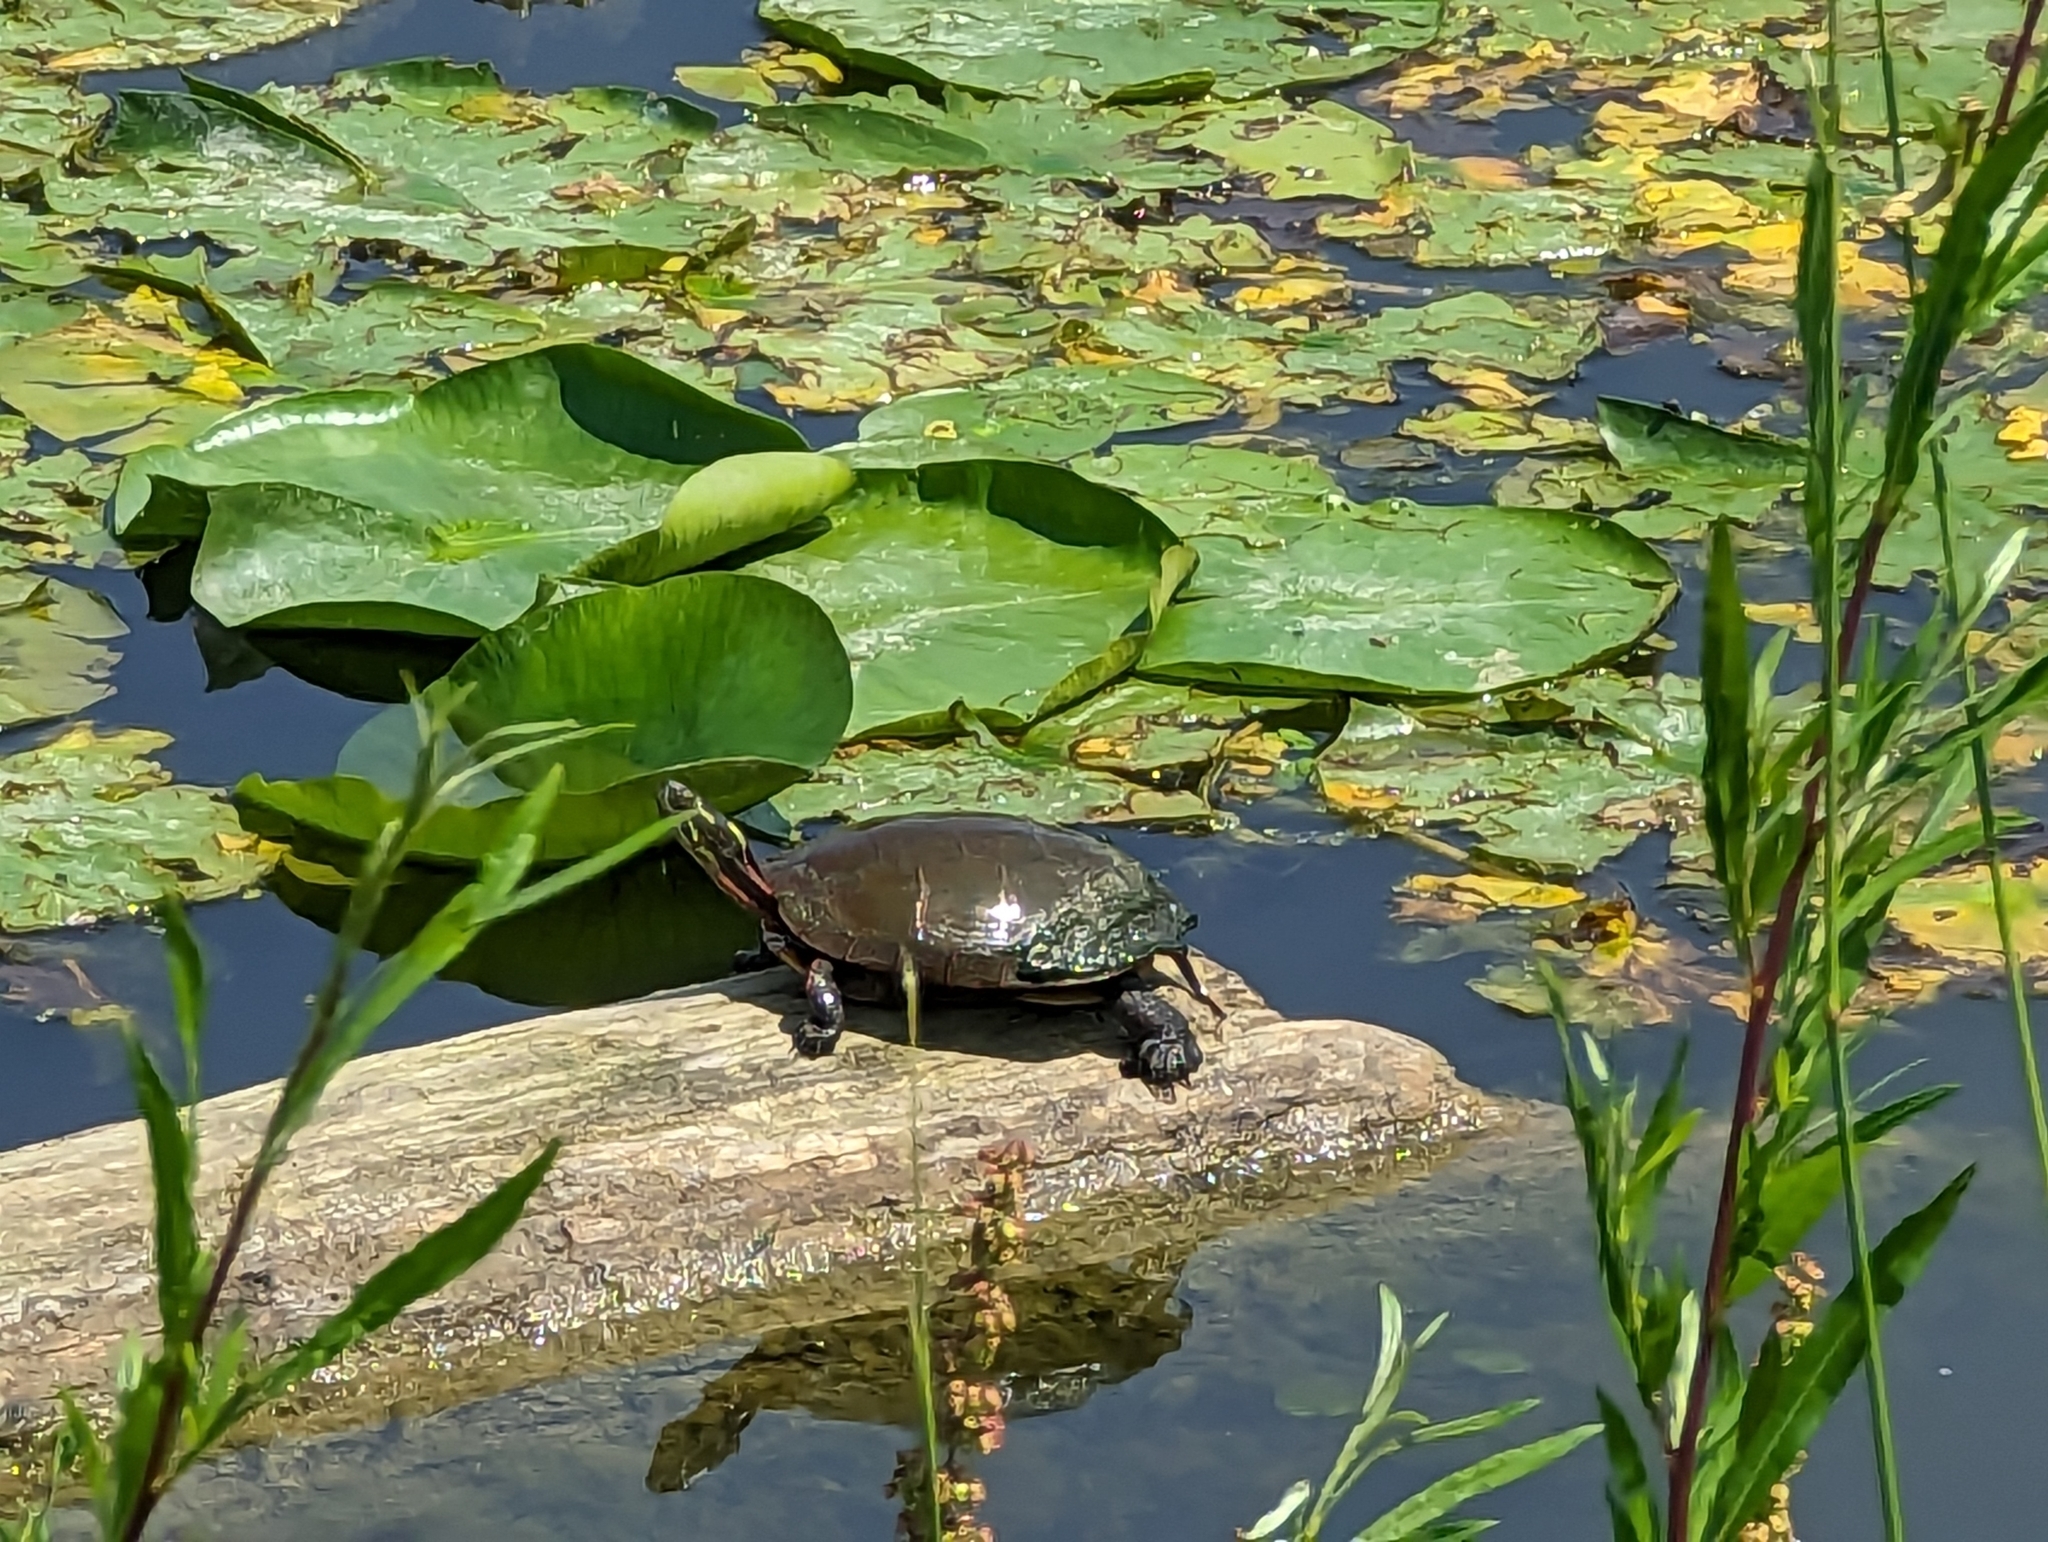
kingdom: Animalia
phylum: Chordata
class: Testudines
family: Emydidae
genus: Chrysemys
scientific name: Chrysemys picta
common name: Painted turtle
